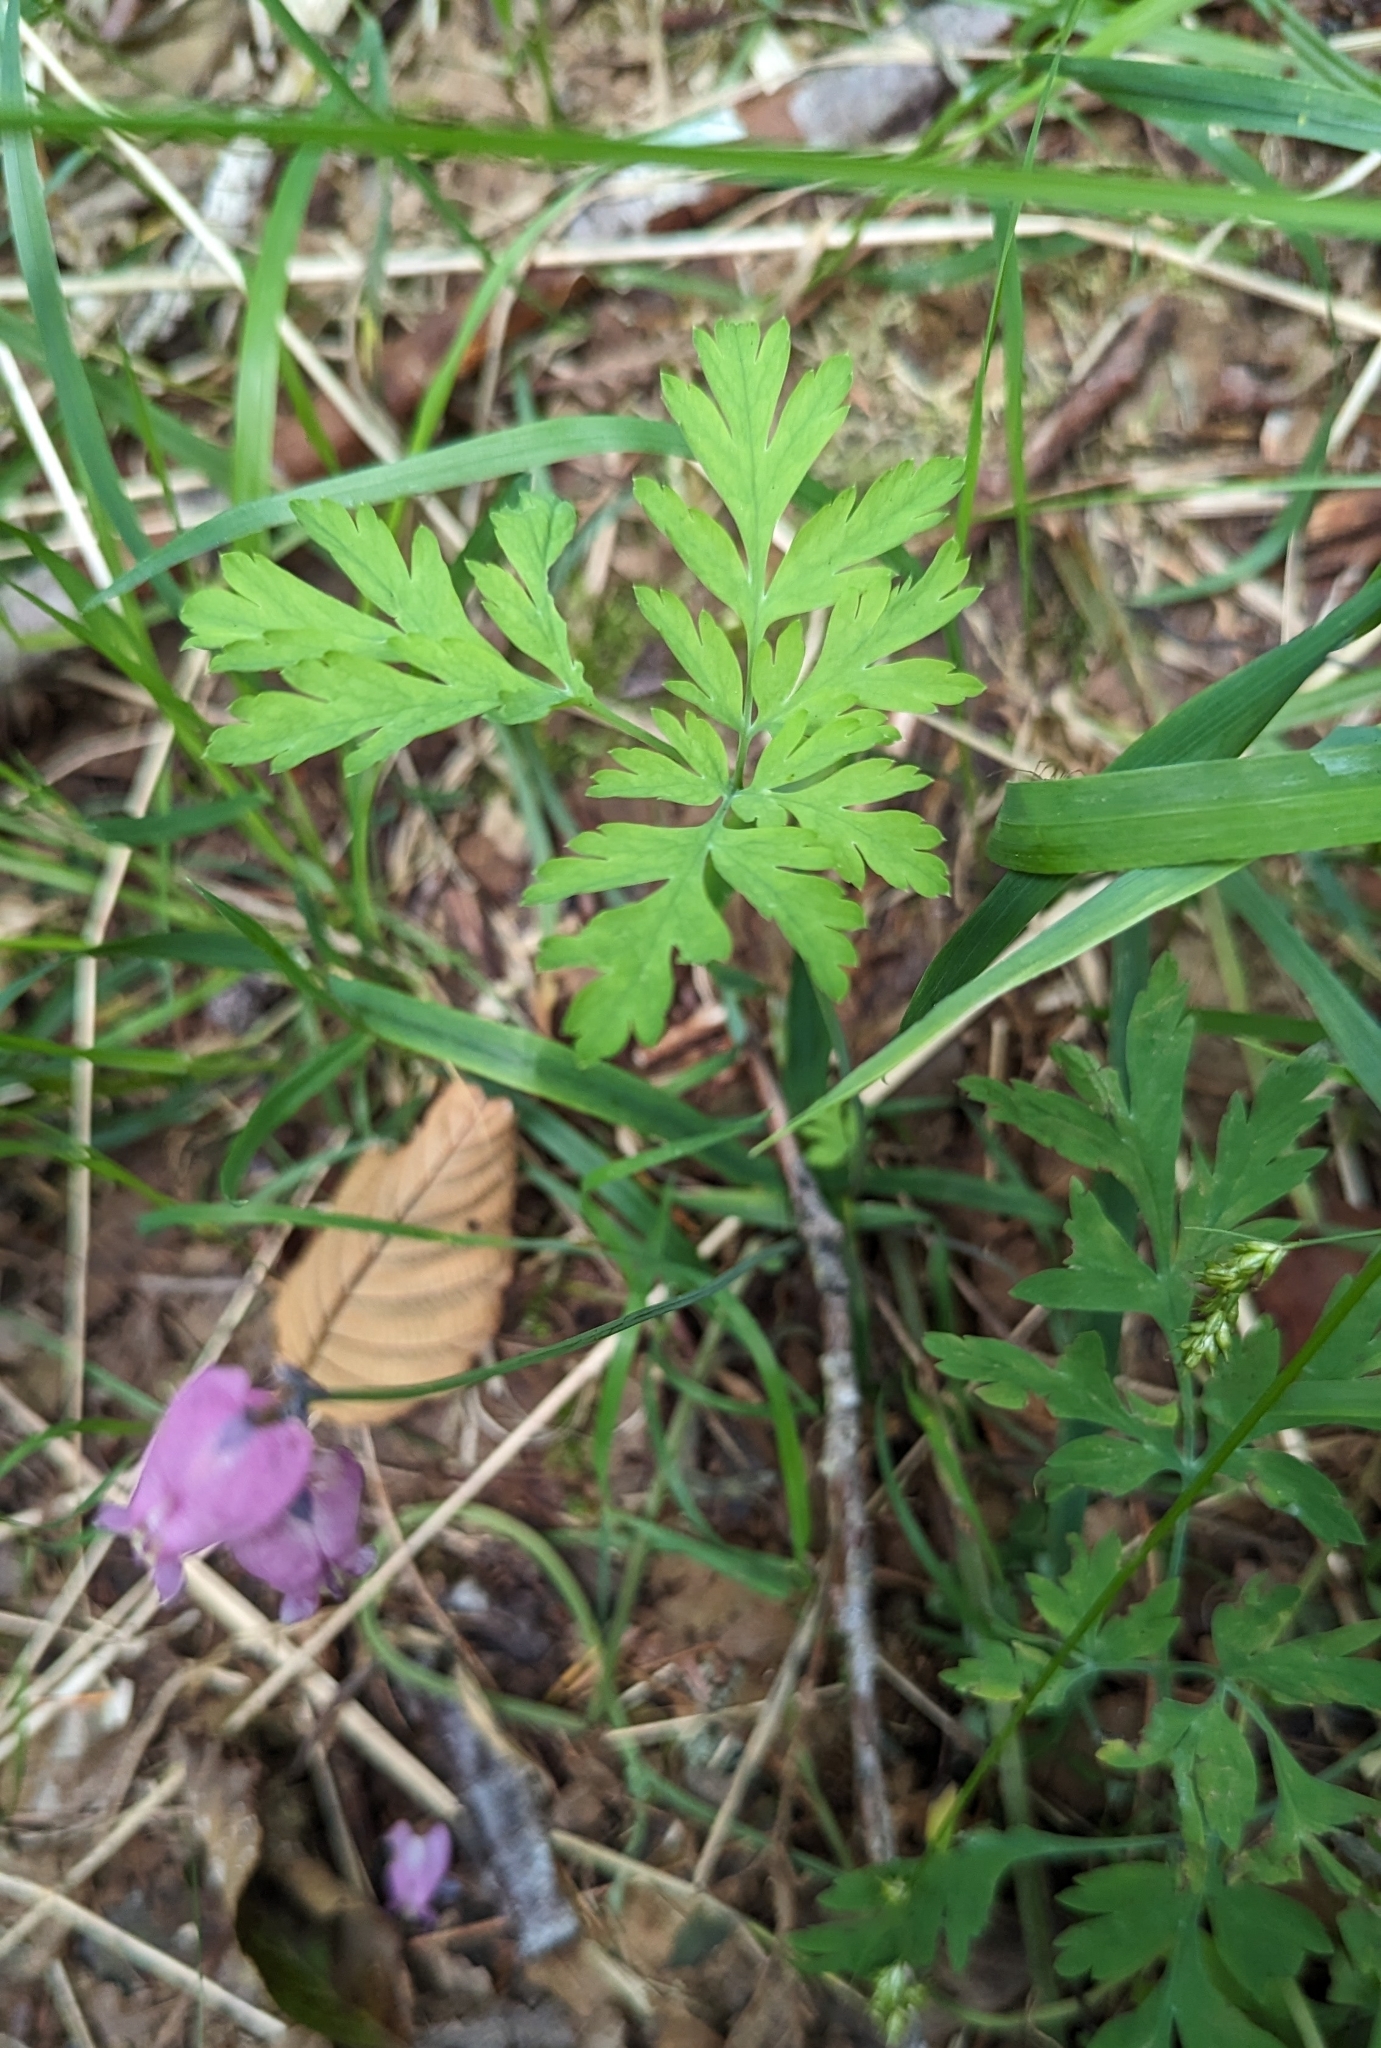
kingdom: Plantae
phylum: Tracheophyta
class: Magnoliopsida
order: Ranunculales
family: Papaveraceae
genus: Dicentra
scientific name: Dicentra formosa
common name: Bleeding-heart
